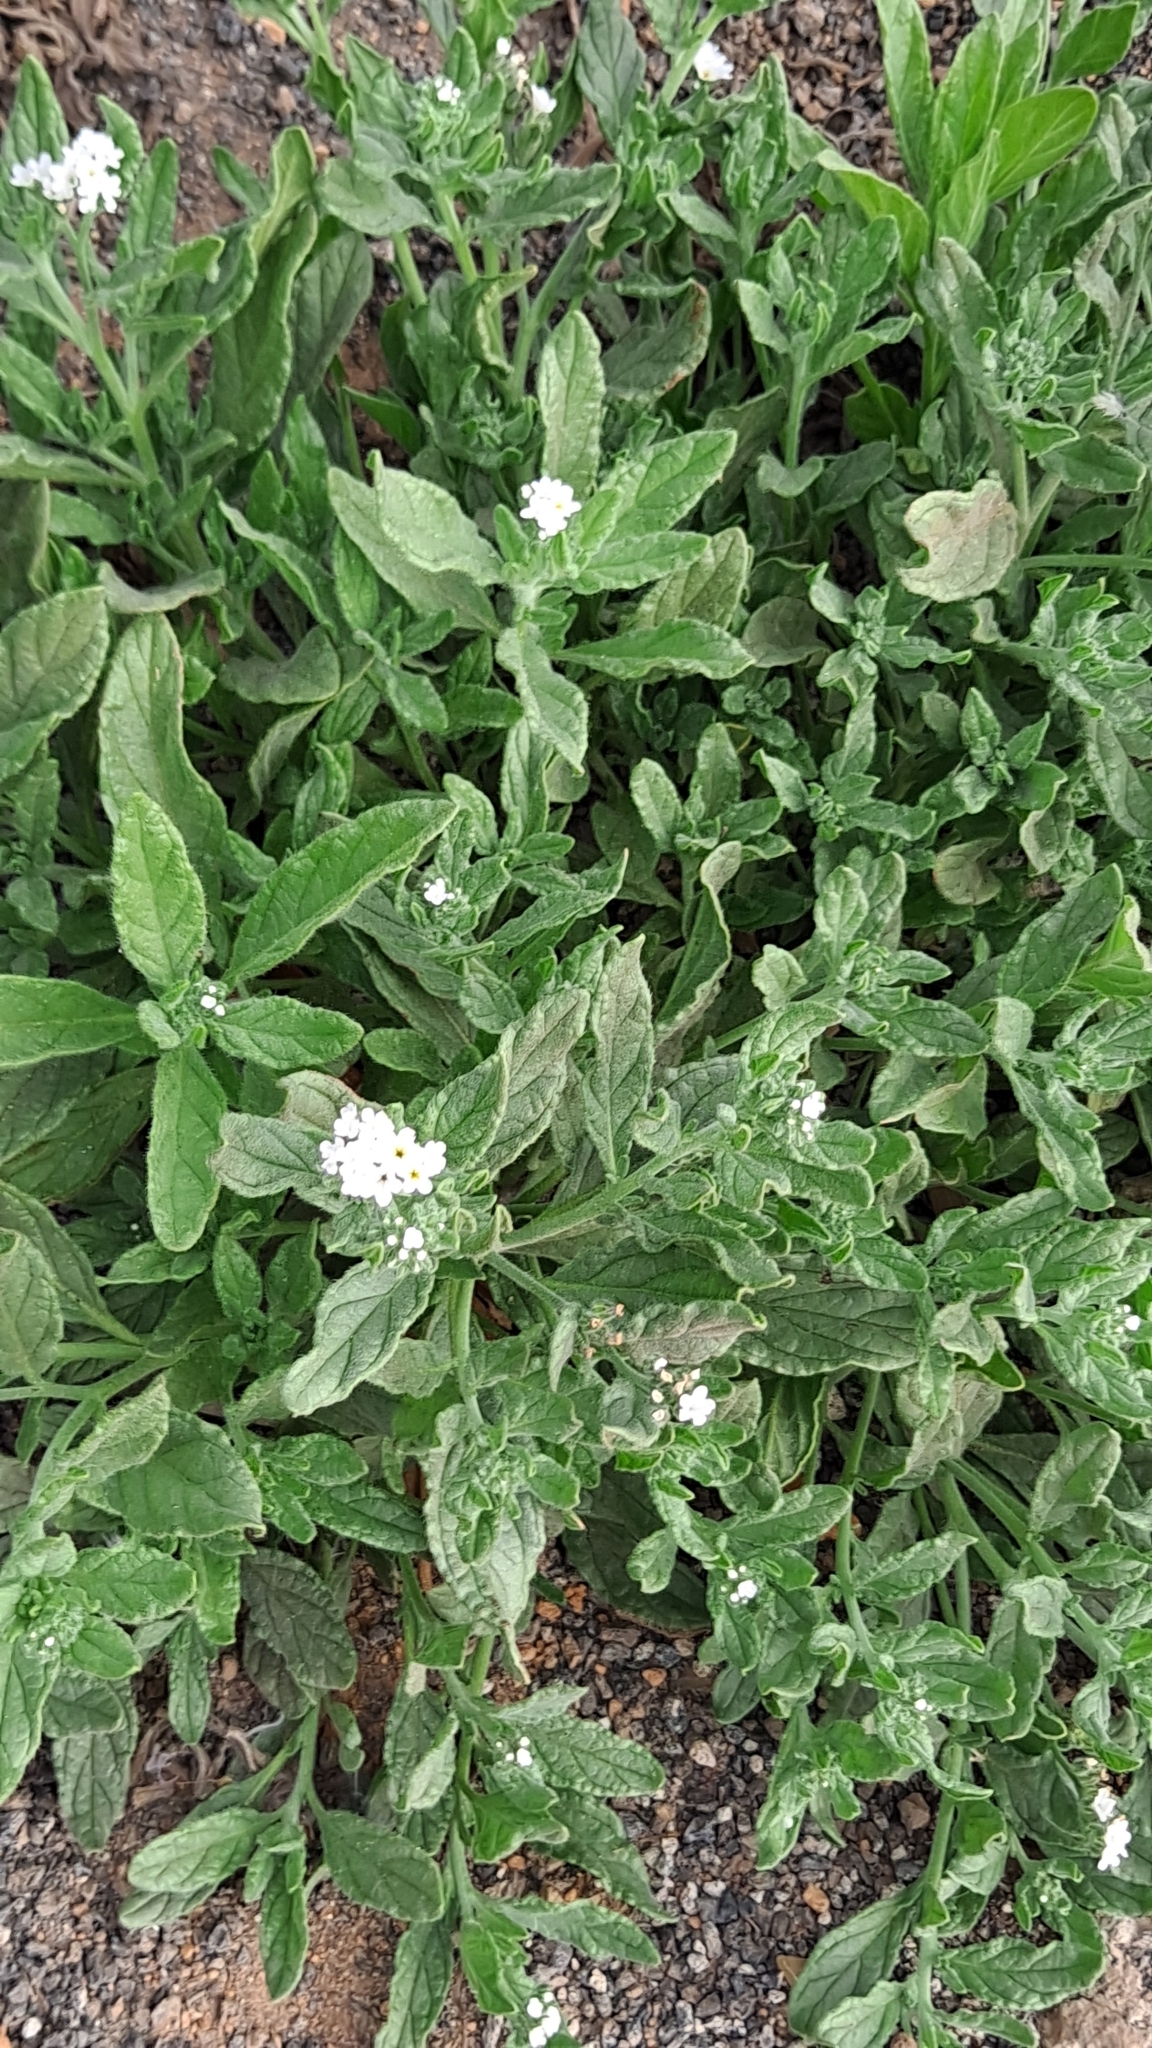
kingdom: Plantae
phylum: Tracheophyta
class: Magnoliopsida
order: Boraginales
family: Heliotropiaceae
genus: Heliotropium
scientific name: Heliotropium ramosissimum
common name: Wavy heliotrope
